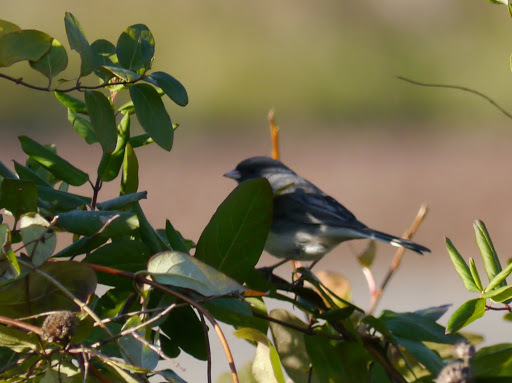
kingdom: Animalia
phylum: Chordata
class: Aves
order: Passeriformes
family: Passerellidae
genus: Junco
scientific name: Junco hyemalis
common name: Dark-eyed junco
